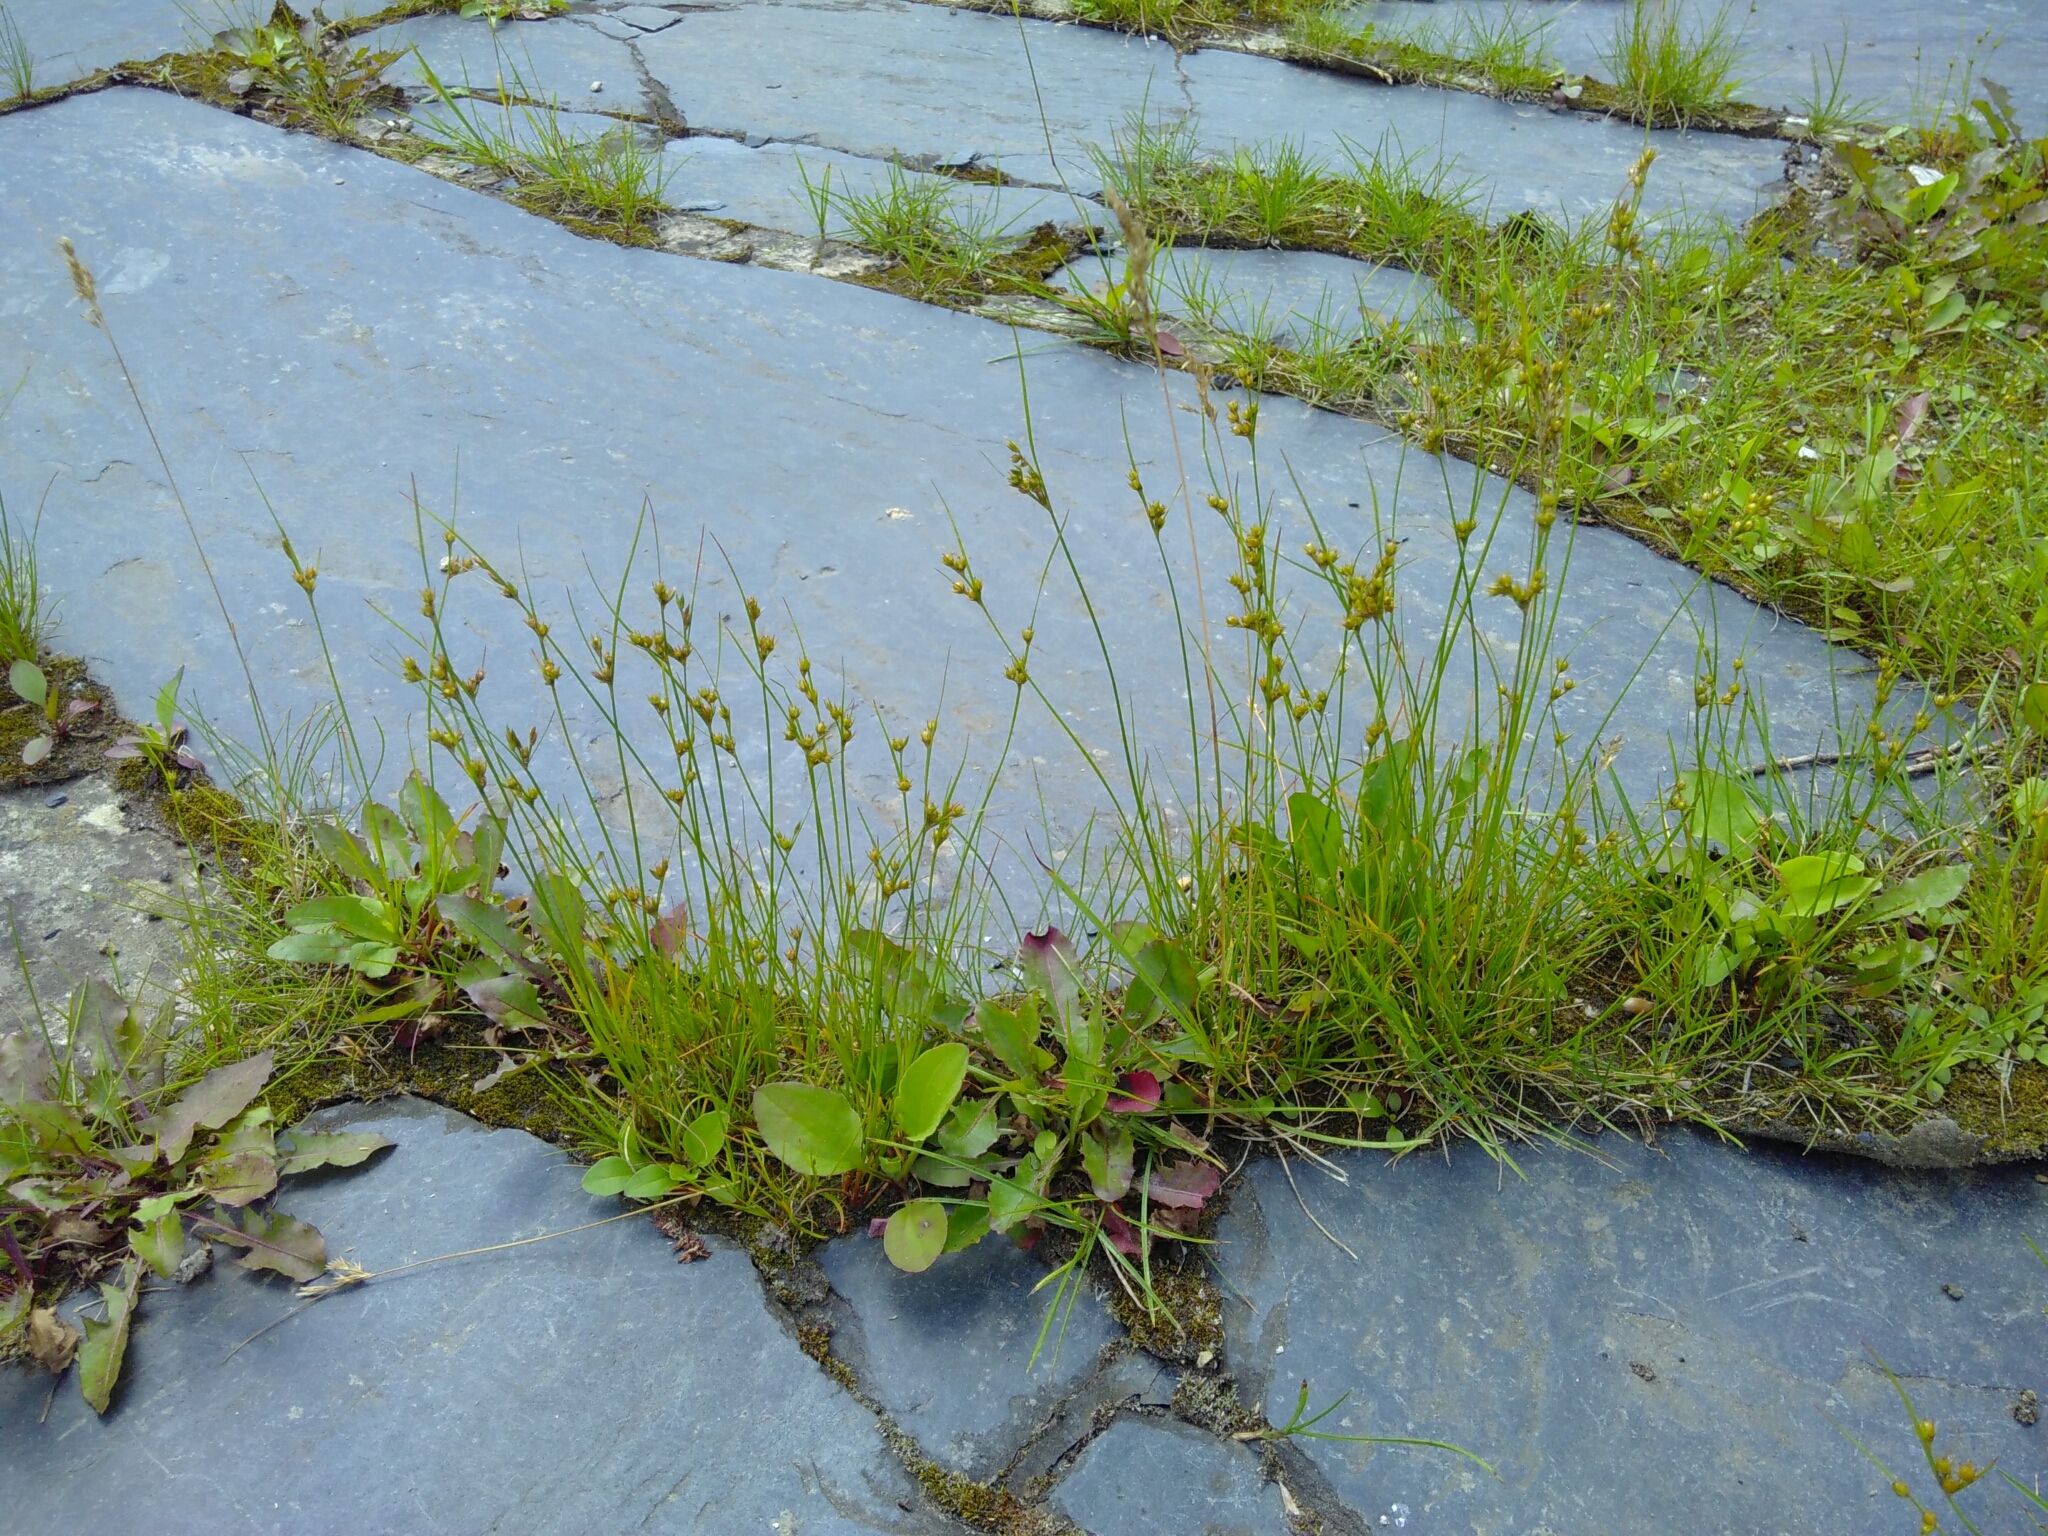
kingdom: Plantae
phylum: Tracheophyta
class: Liliopsida
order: Poales
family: Juncaceae
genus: Juncus
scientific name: Juncus tenuis
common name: Slender rush
